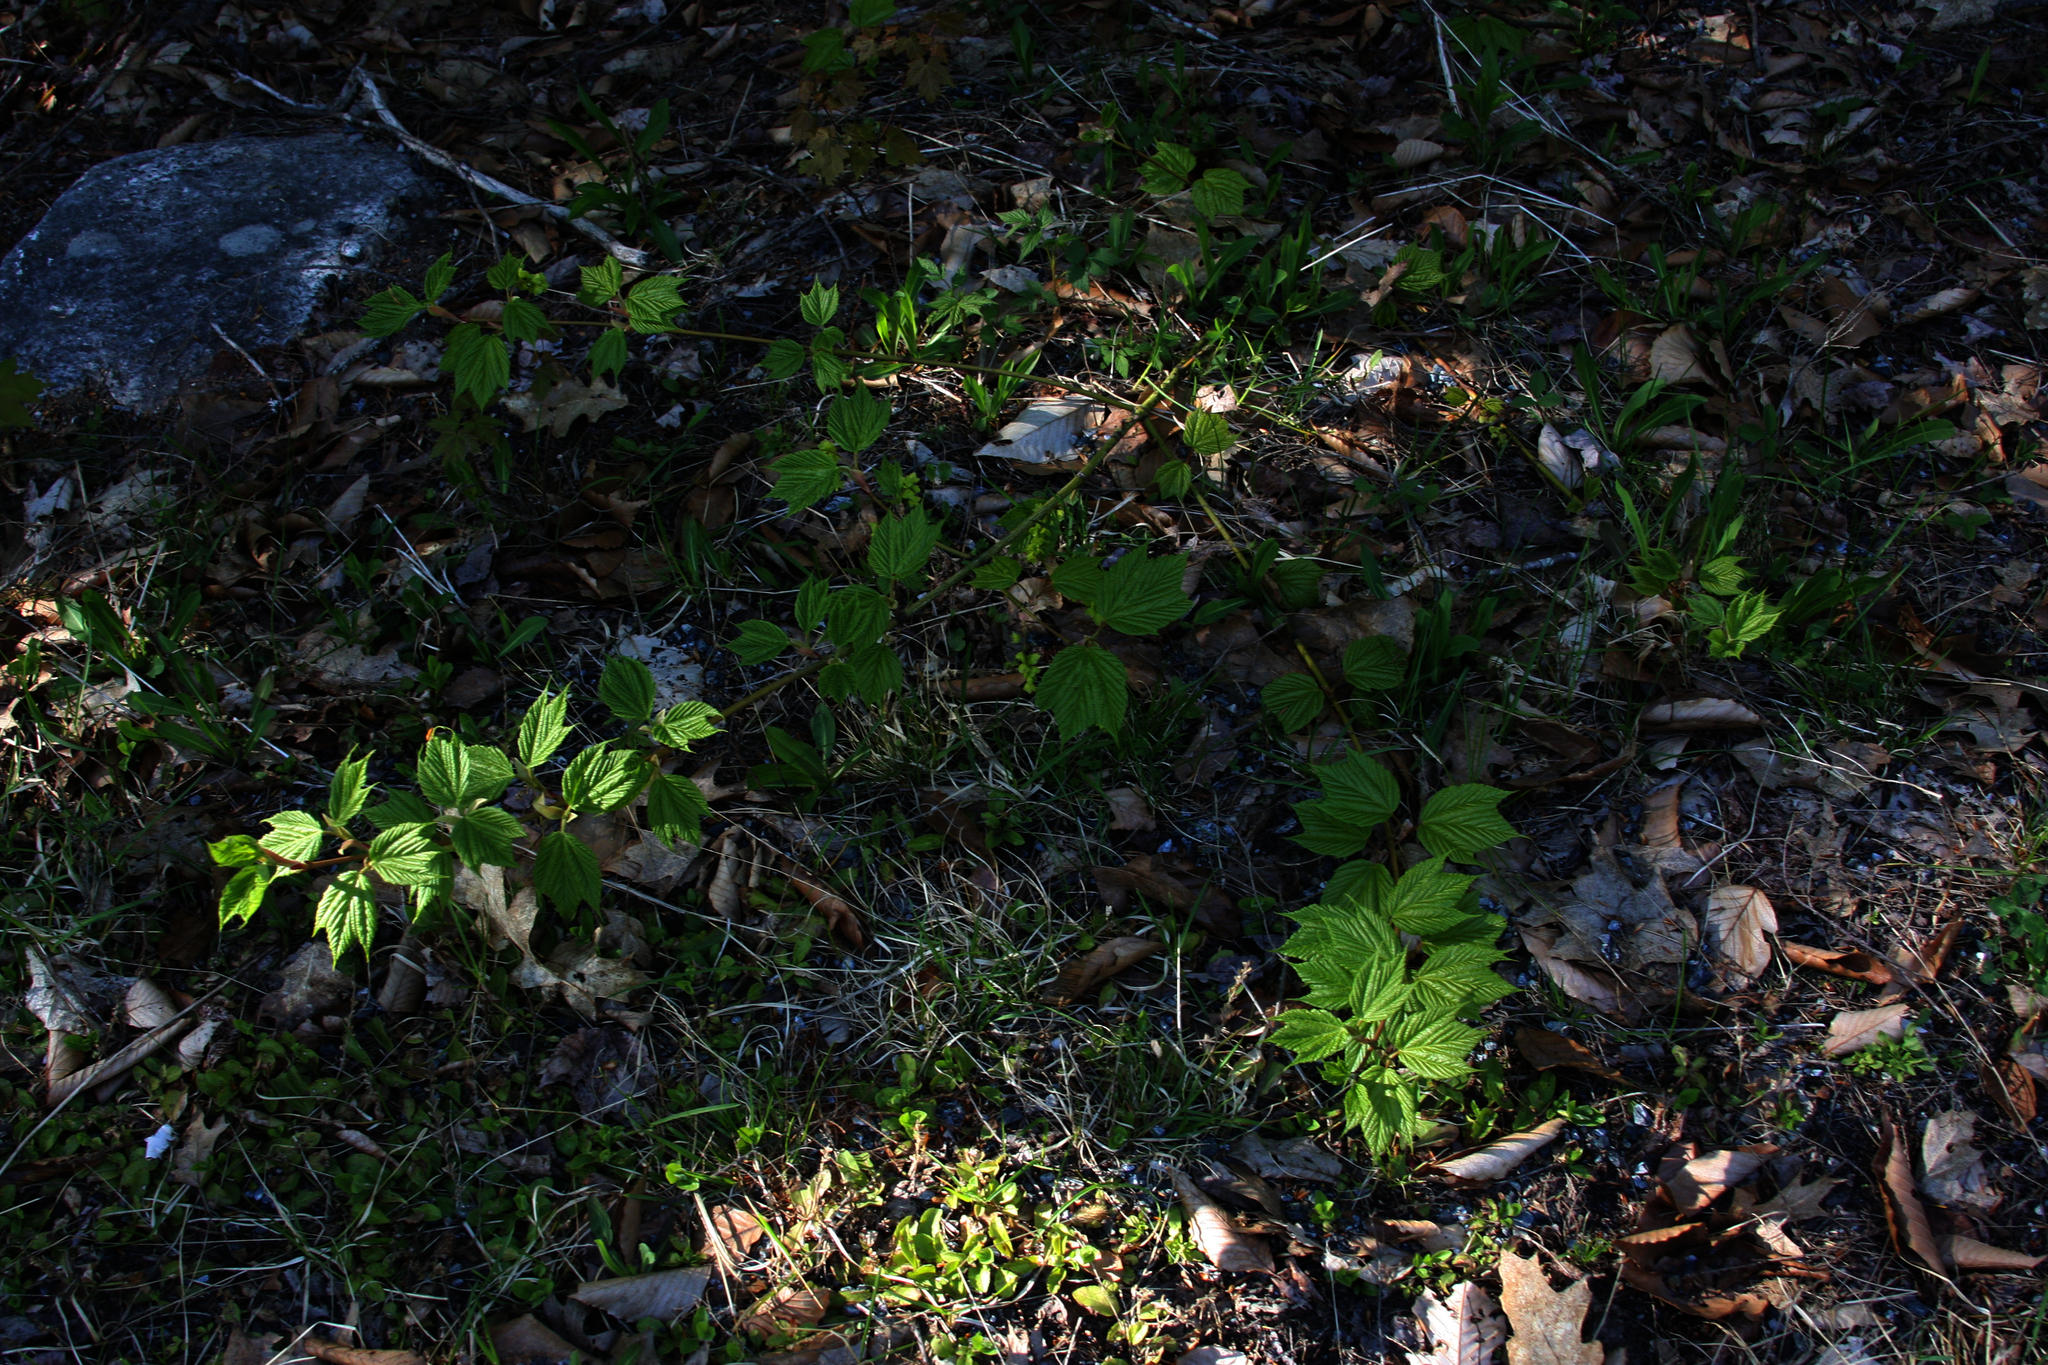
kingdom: Plantae
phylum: Tracheophyta
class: Magnoliopsida
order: Sapindales
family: Sapindaceae
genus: Acer
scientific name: Acer pensylvanicum
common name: Moosewood
